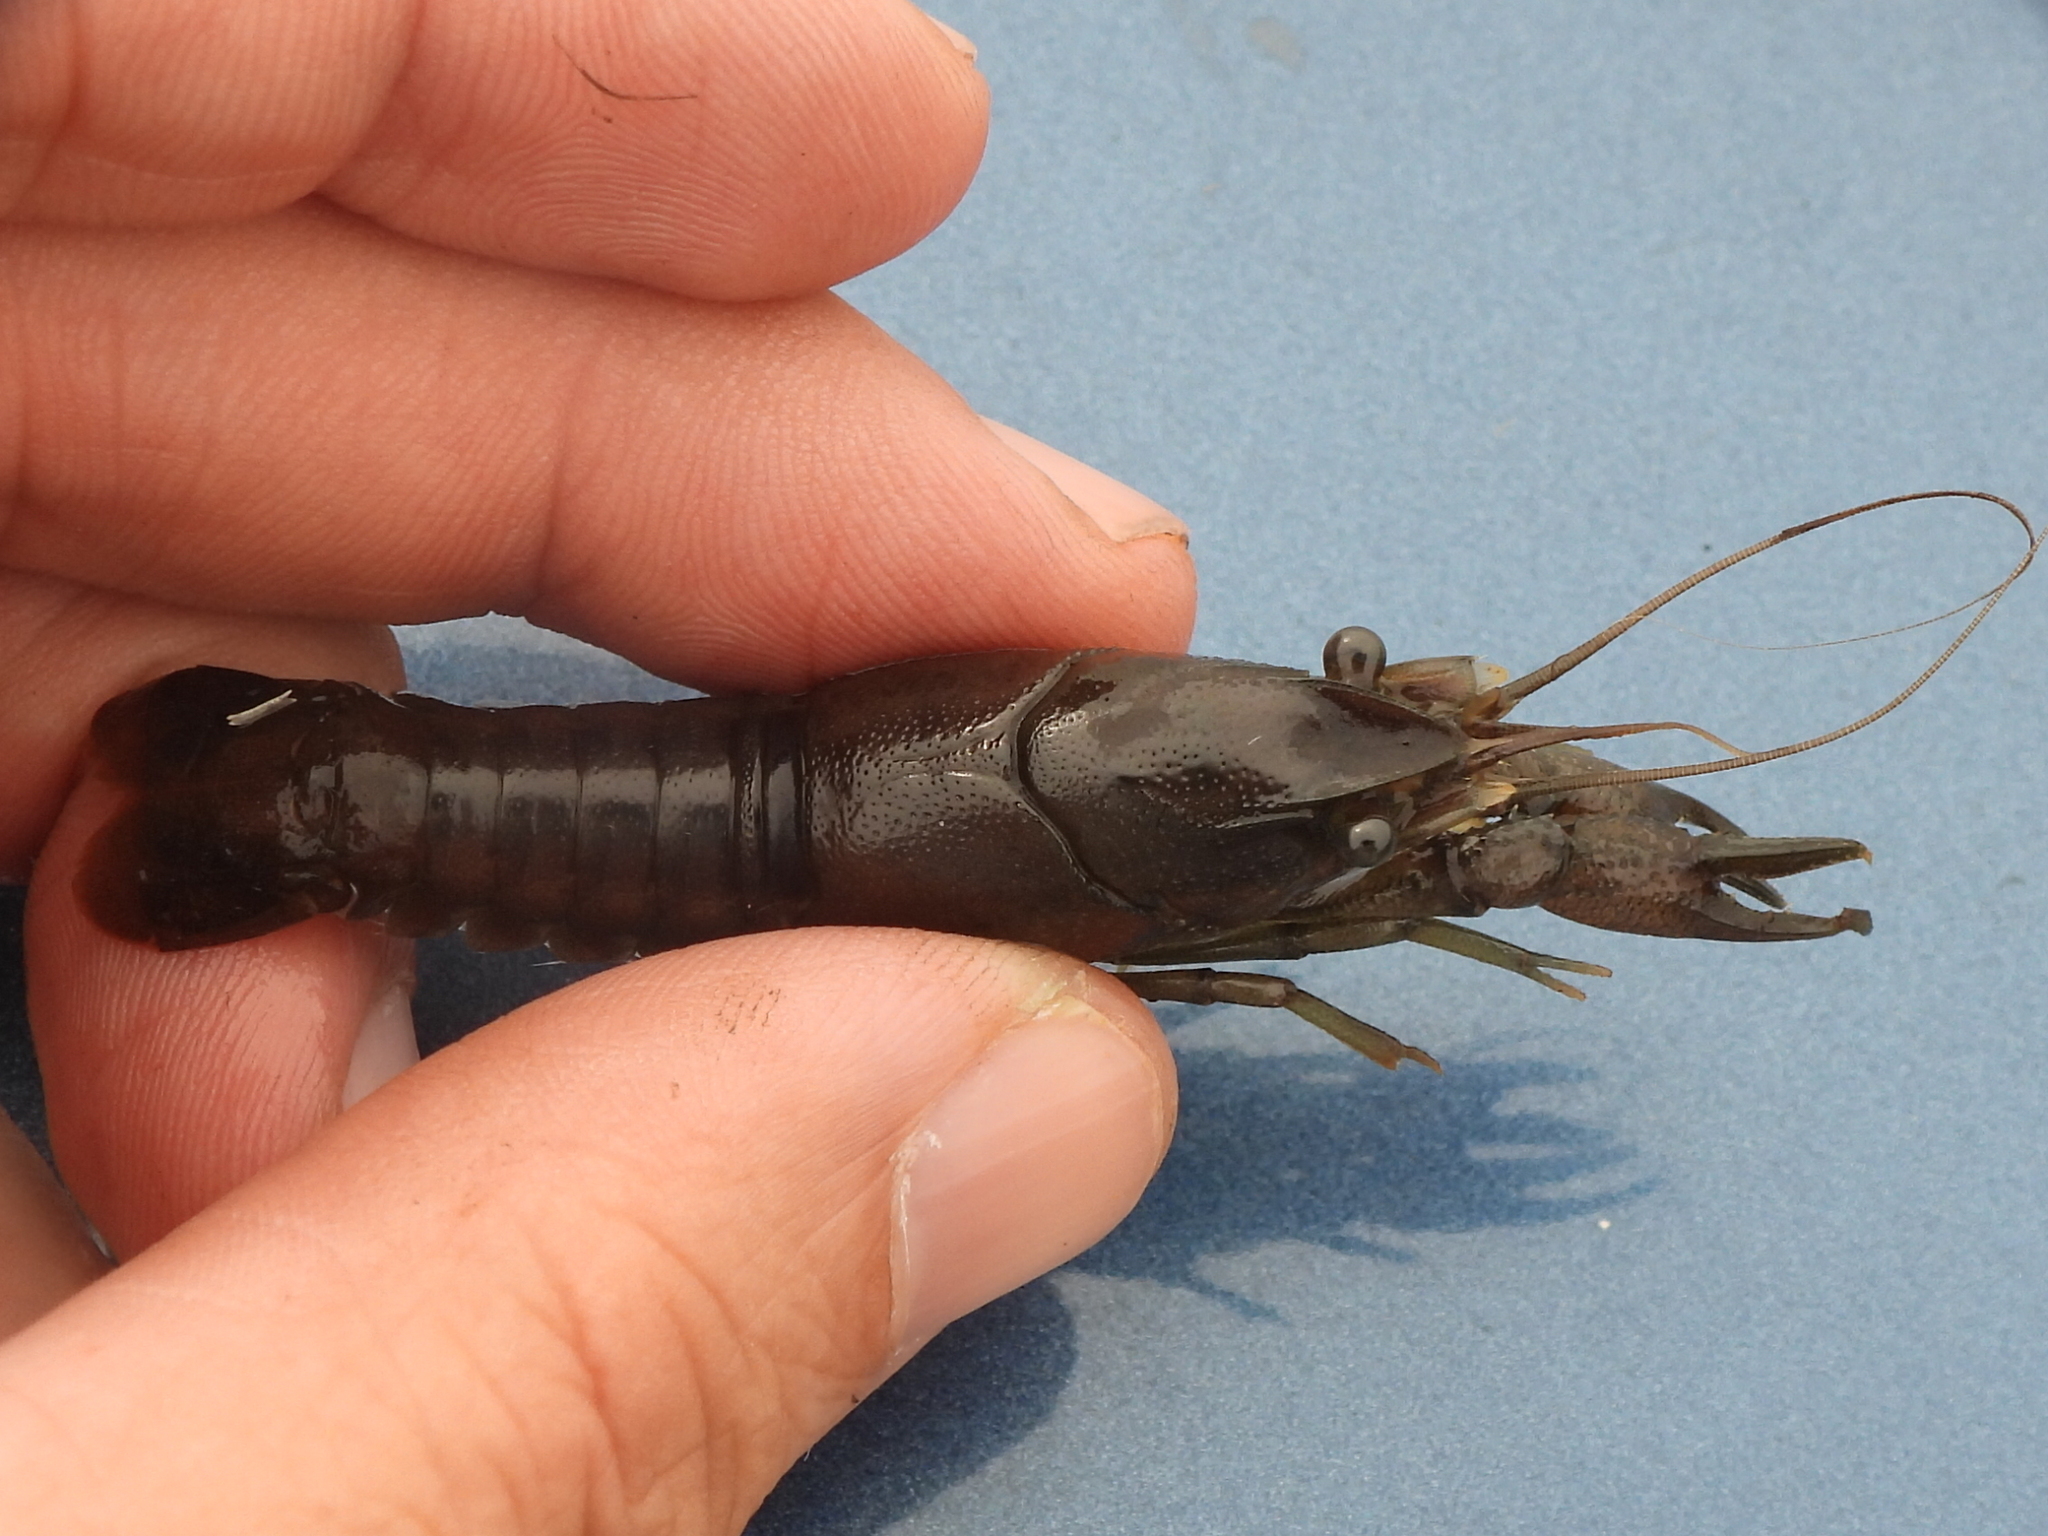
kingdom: Animalia
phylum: Arthropoda
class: Malacostraca
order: Decapoda
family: Cambaridae
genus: Procambarus
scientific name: Procambarus parvus
